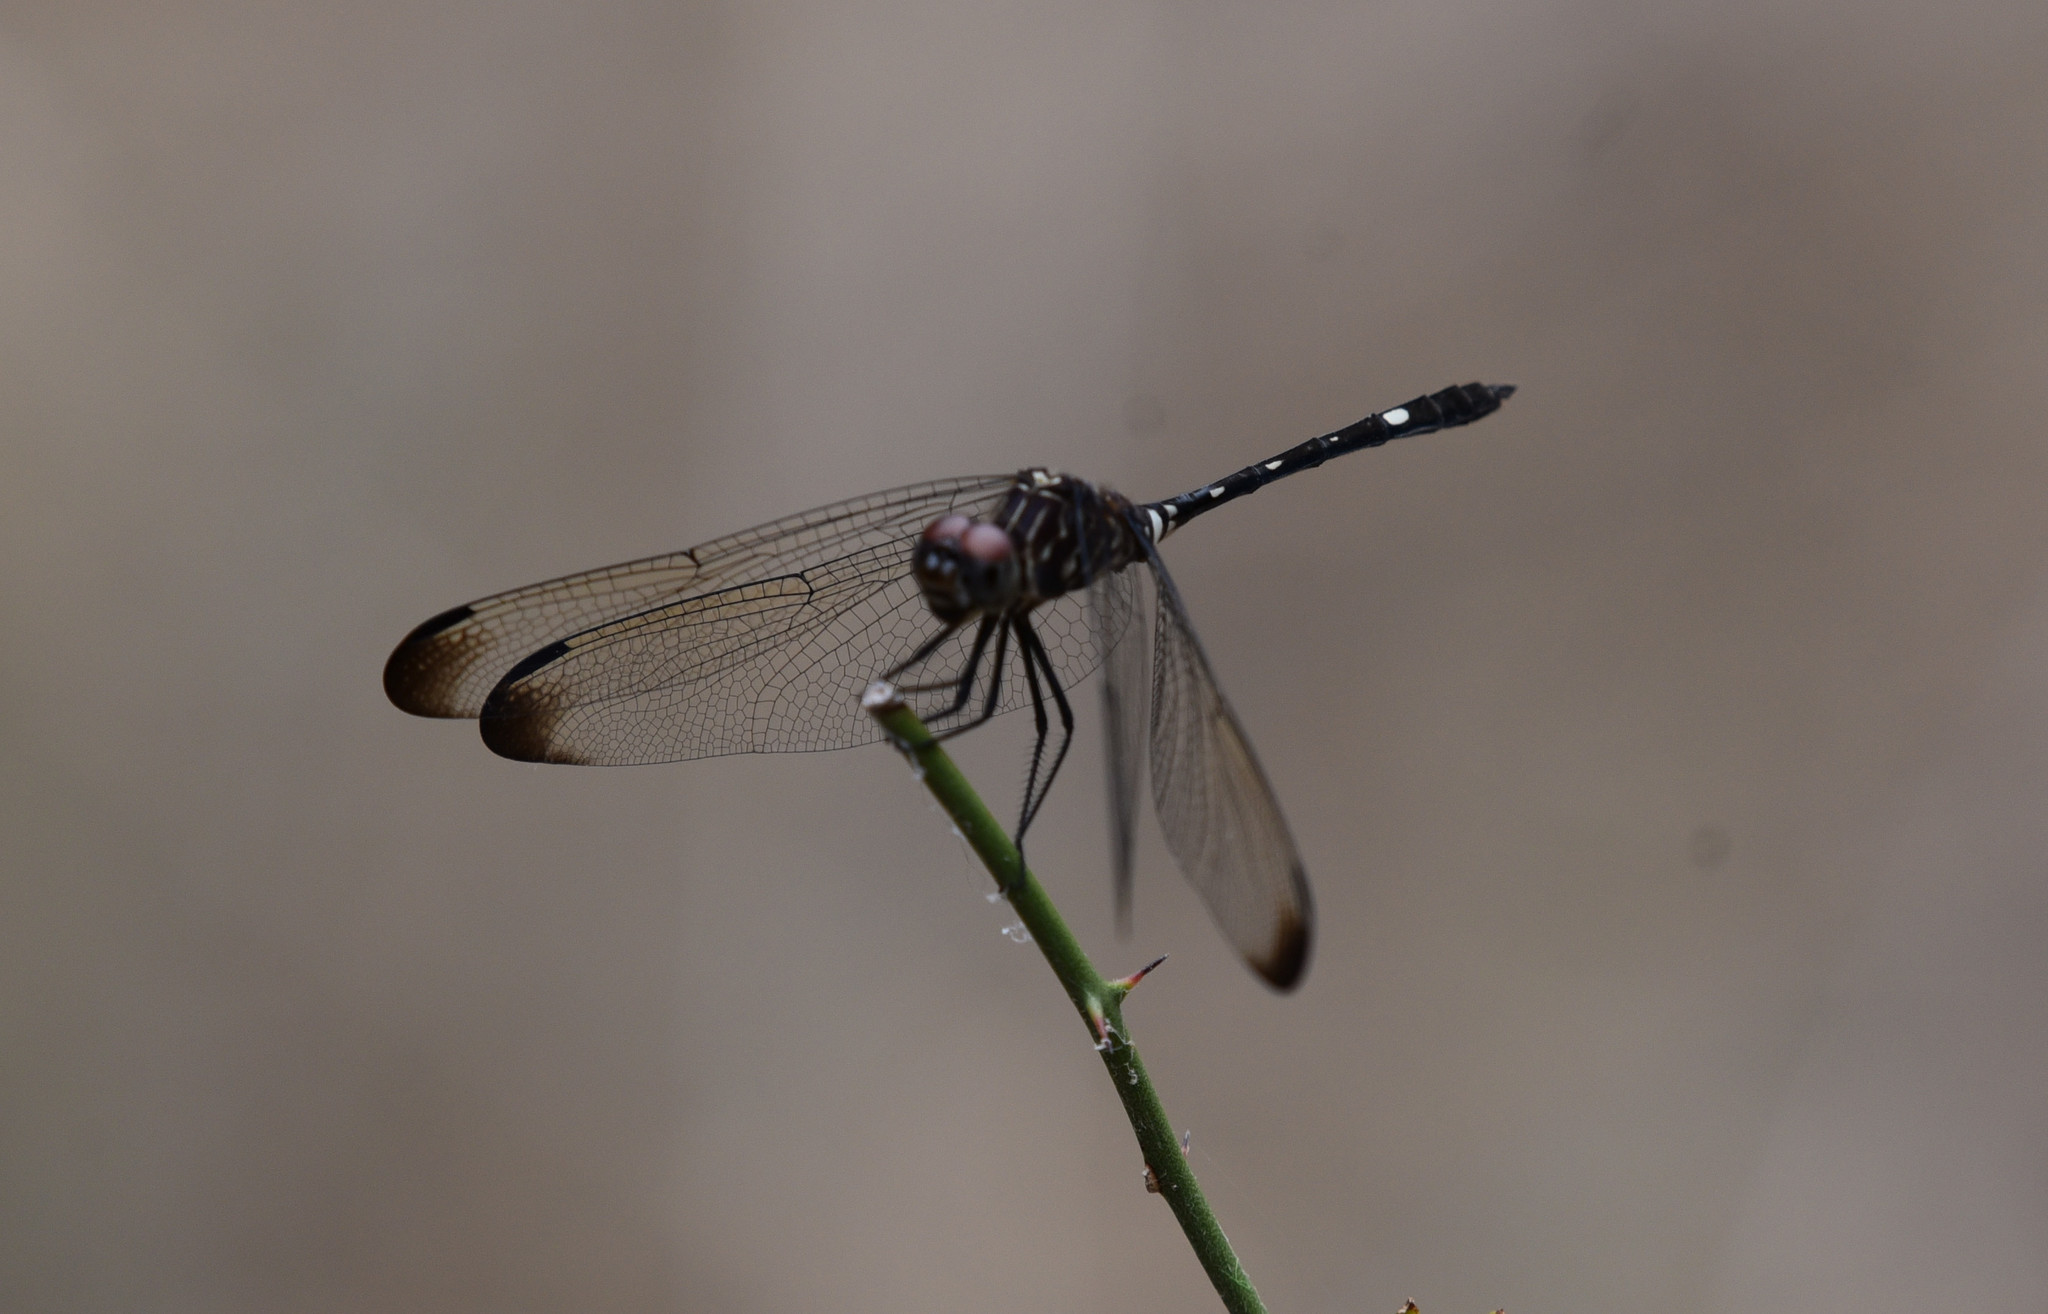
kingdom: Animalia
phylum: Arthropoda
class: Insecta
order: Odonata
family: Libellulidae
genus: Dythemis
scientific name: Dythemis velox
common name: Swift setwing
